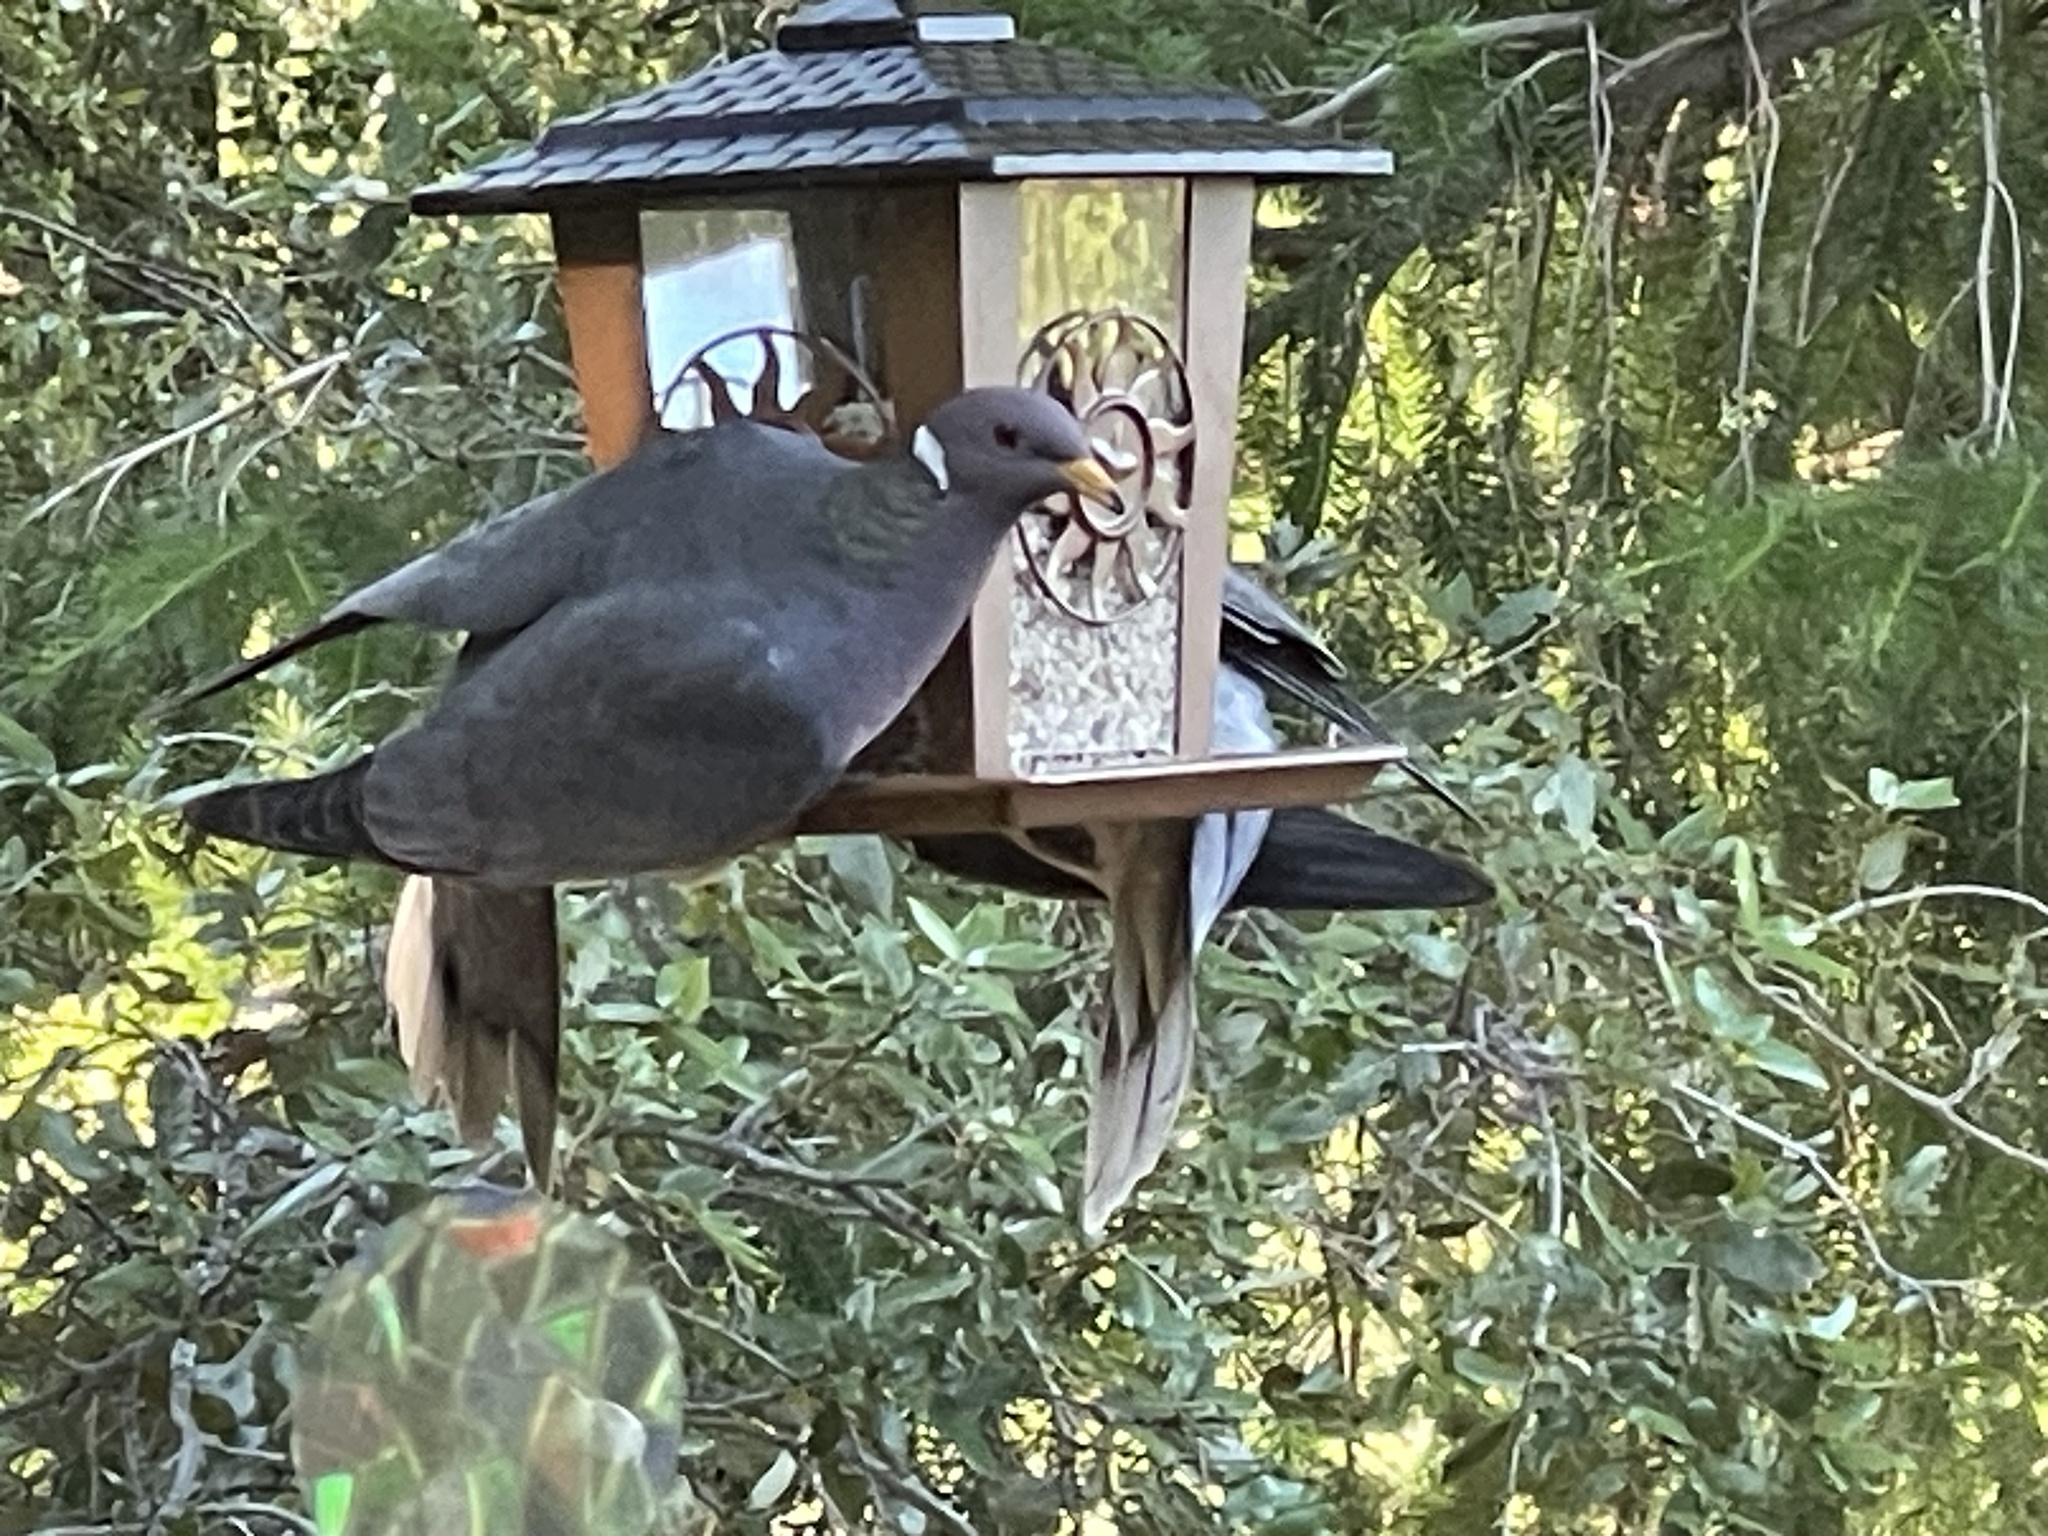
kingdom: Animalia
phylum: Chordata
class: Aves
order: Columbiformes
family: Columbidae
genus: Patagioenas
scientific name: Patagioenas fasciata
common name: Band-tailed pigeon
